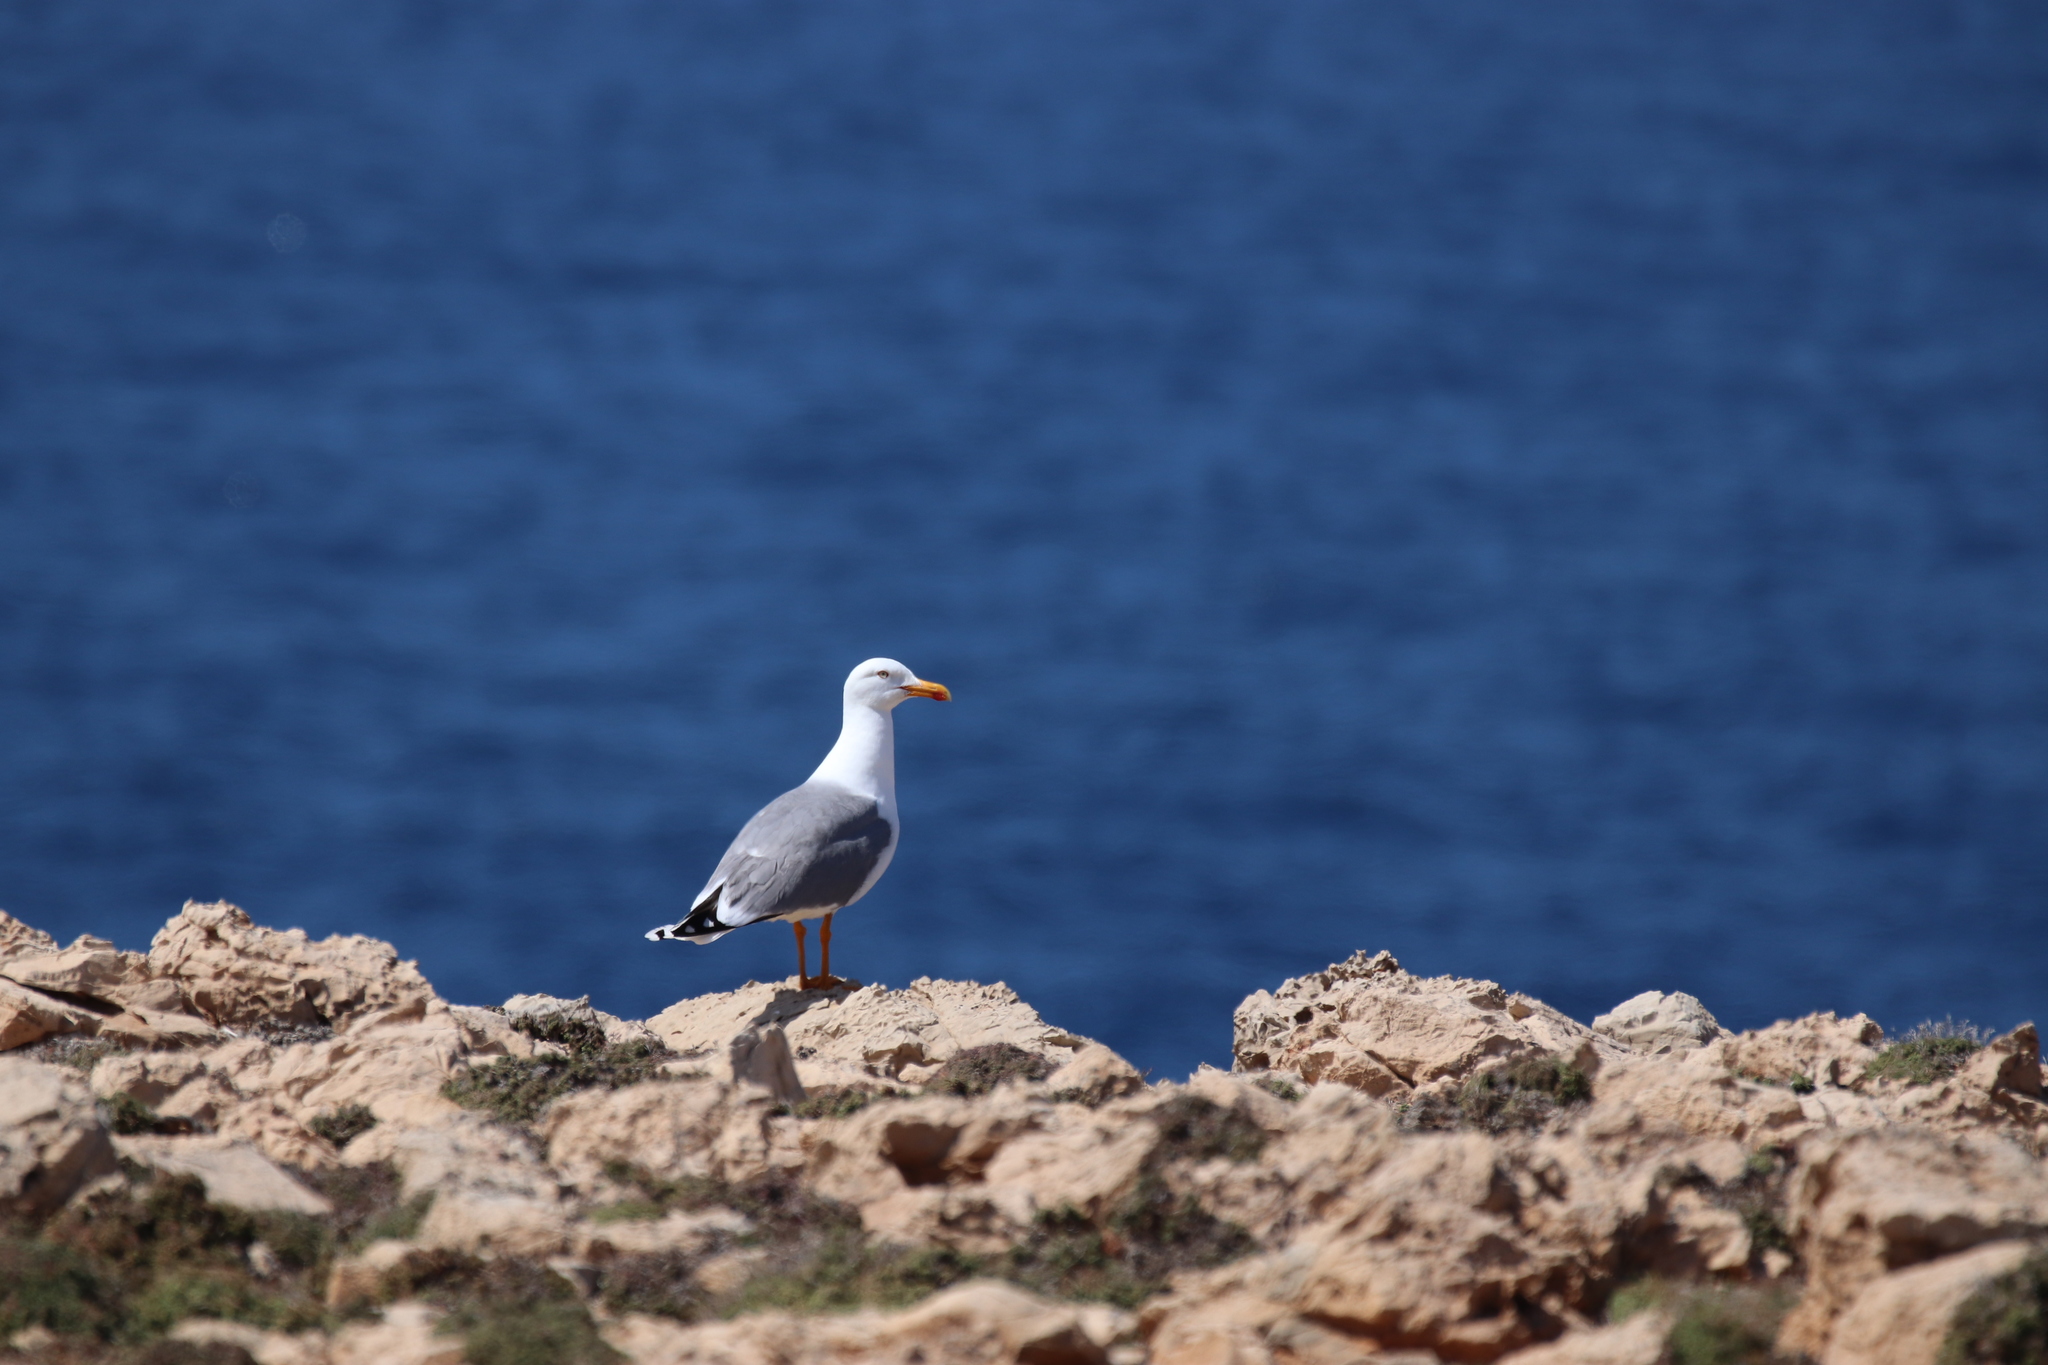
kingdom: Animalia
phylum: Chordata
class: Aves
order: Charadriiformes
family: Laridae
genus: Larus
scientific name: Larus michahellis
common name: Yellow-legged gull
